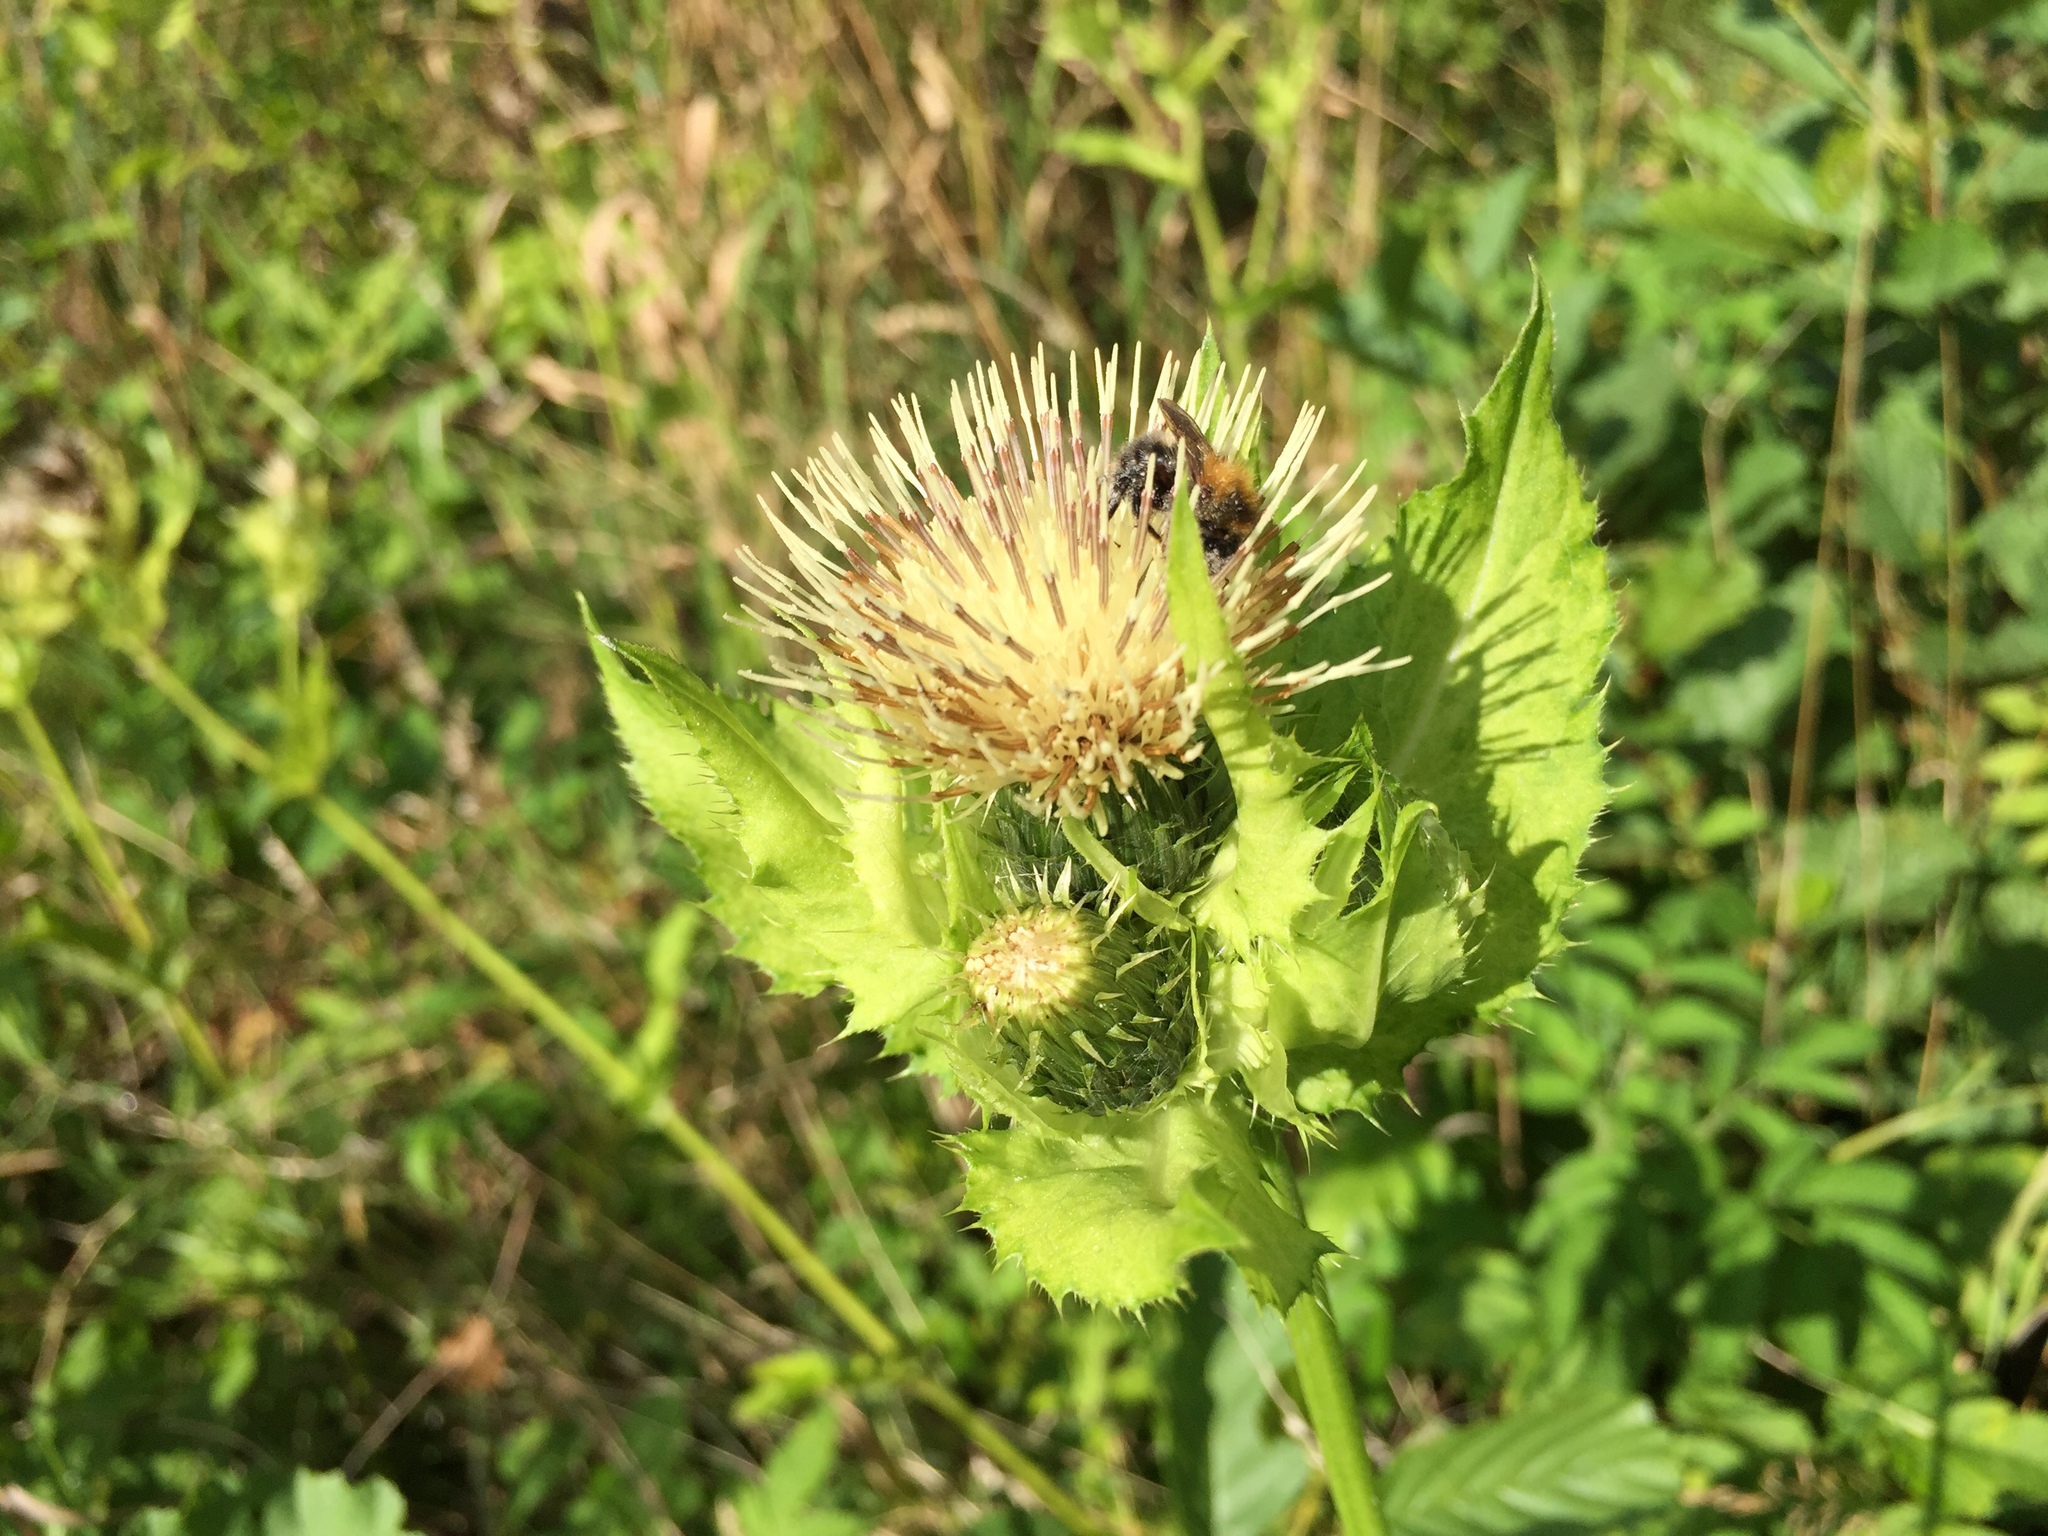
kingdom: Plantae
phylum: Tracheophyta
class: Magnoliopsida
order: Asterales
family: Asteraceae
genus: Cirsium
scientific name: Cirsium oleraceum
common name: Cabbage thistle
